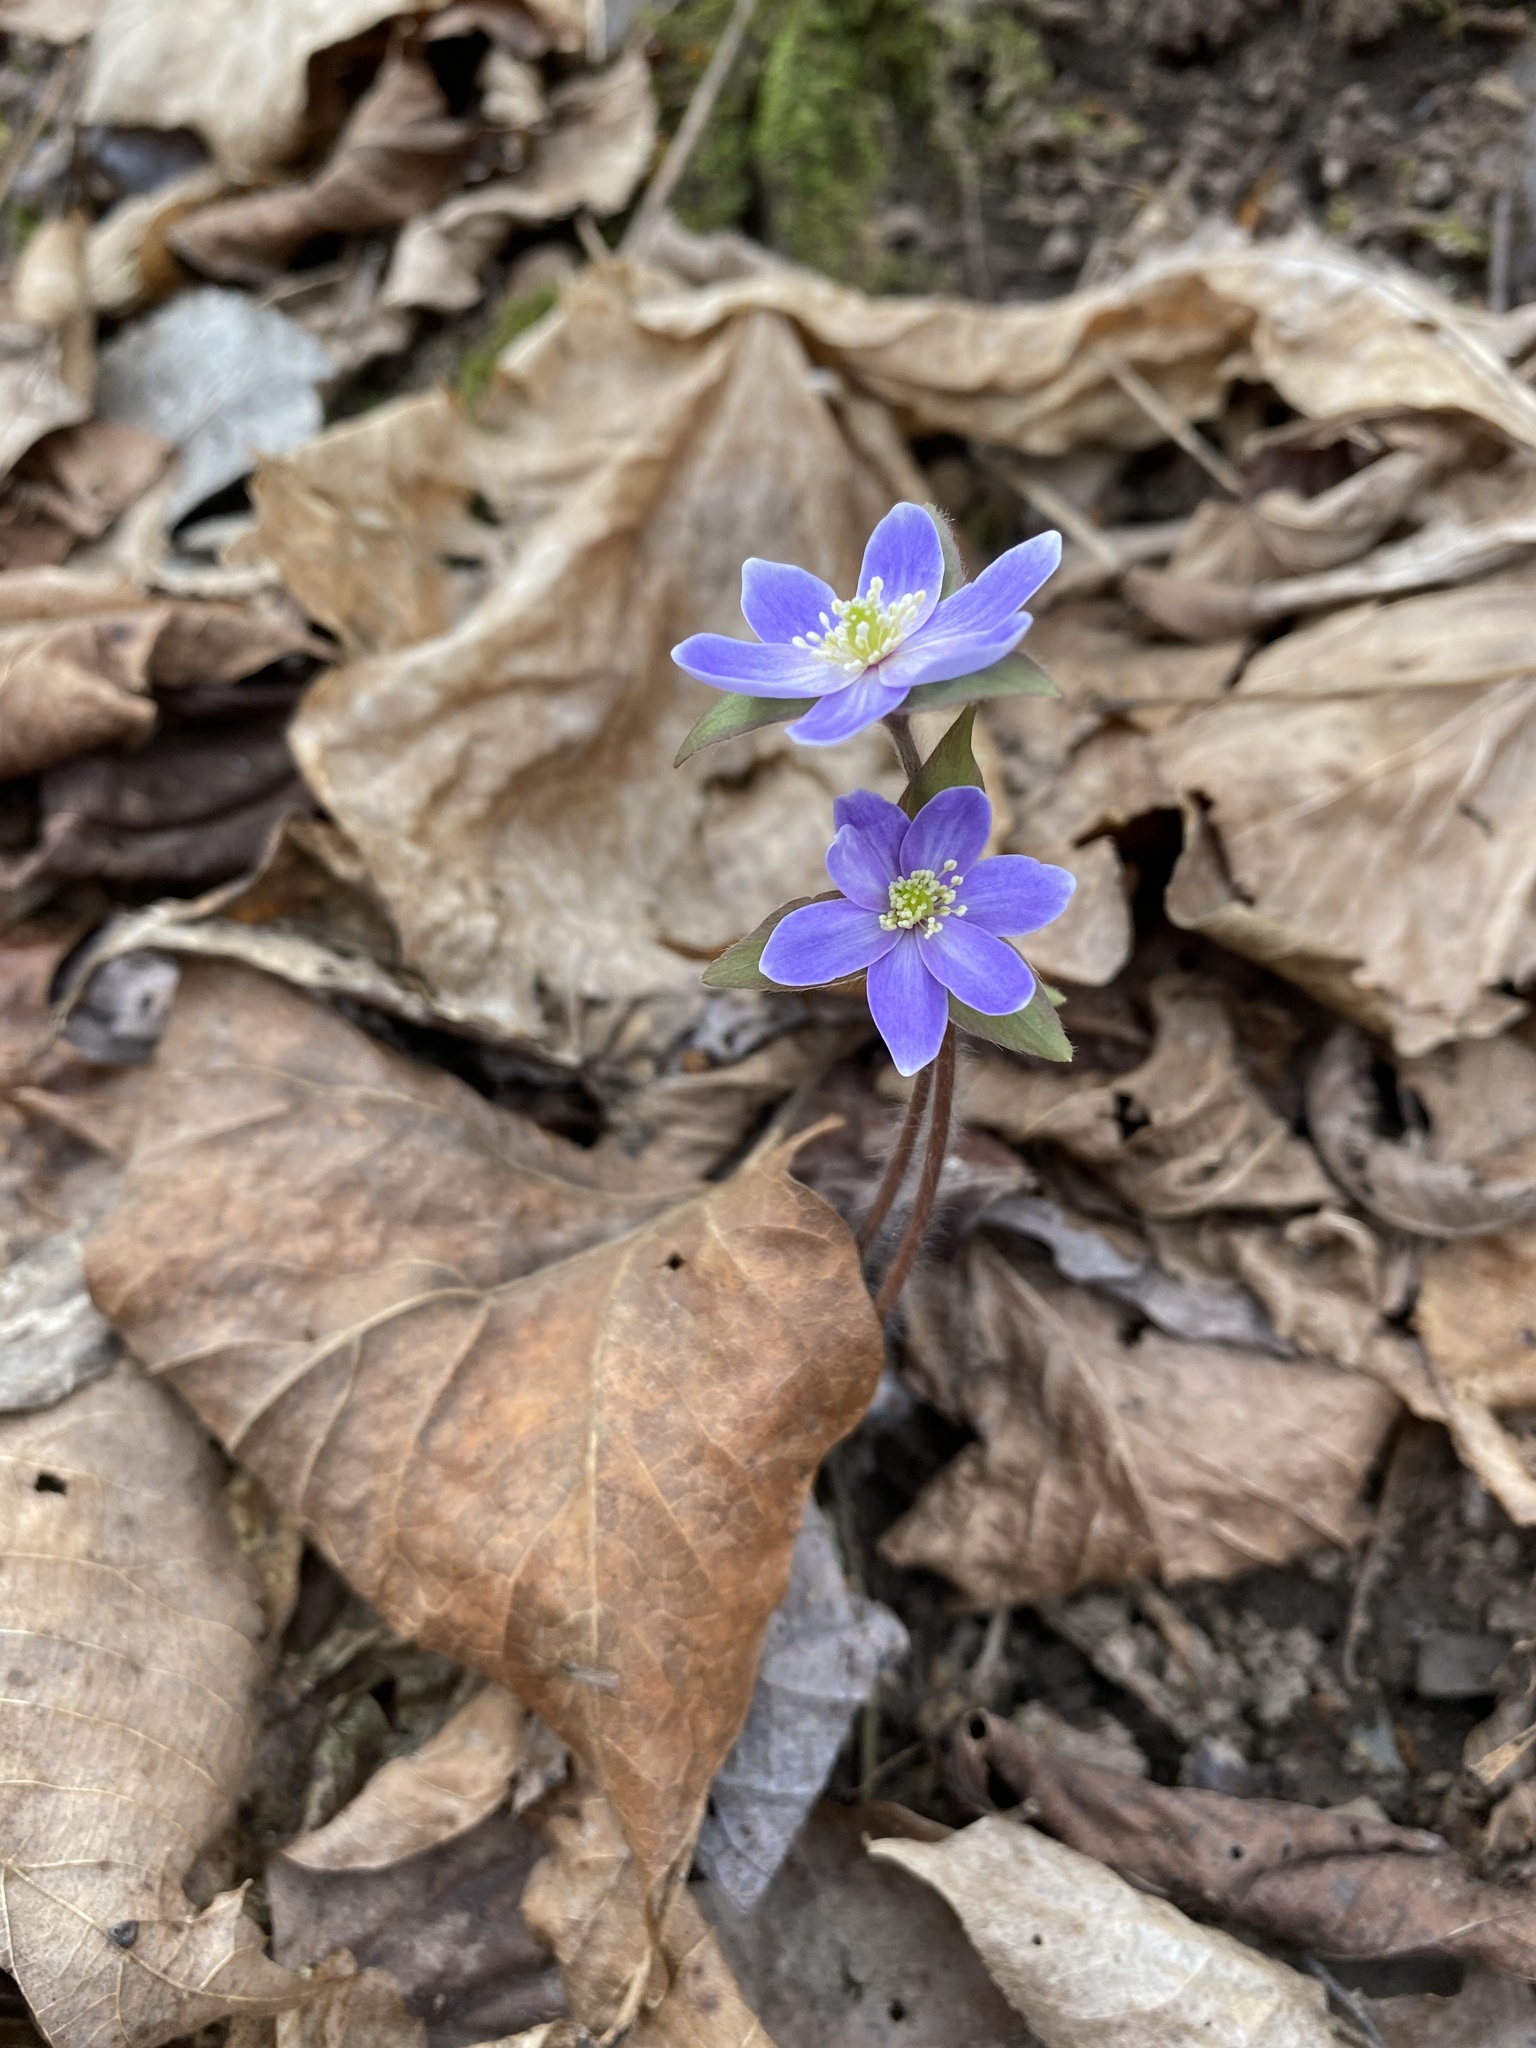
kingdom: Plantae
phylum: Tracheophyta
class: Magnoliopsida
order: Ranunculales
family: Ranunculaceae
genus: Hepatica
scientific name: Hepatica acutiloba
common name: Sharp-lobed hepatica
